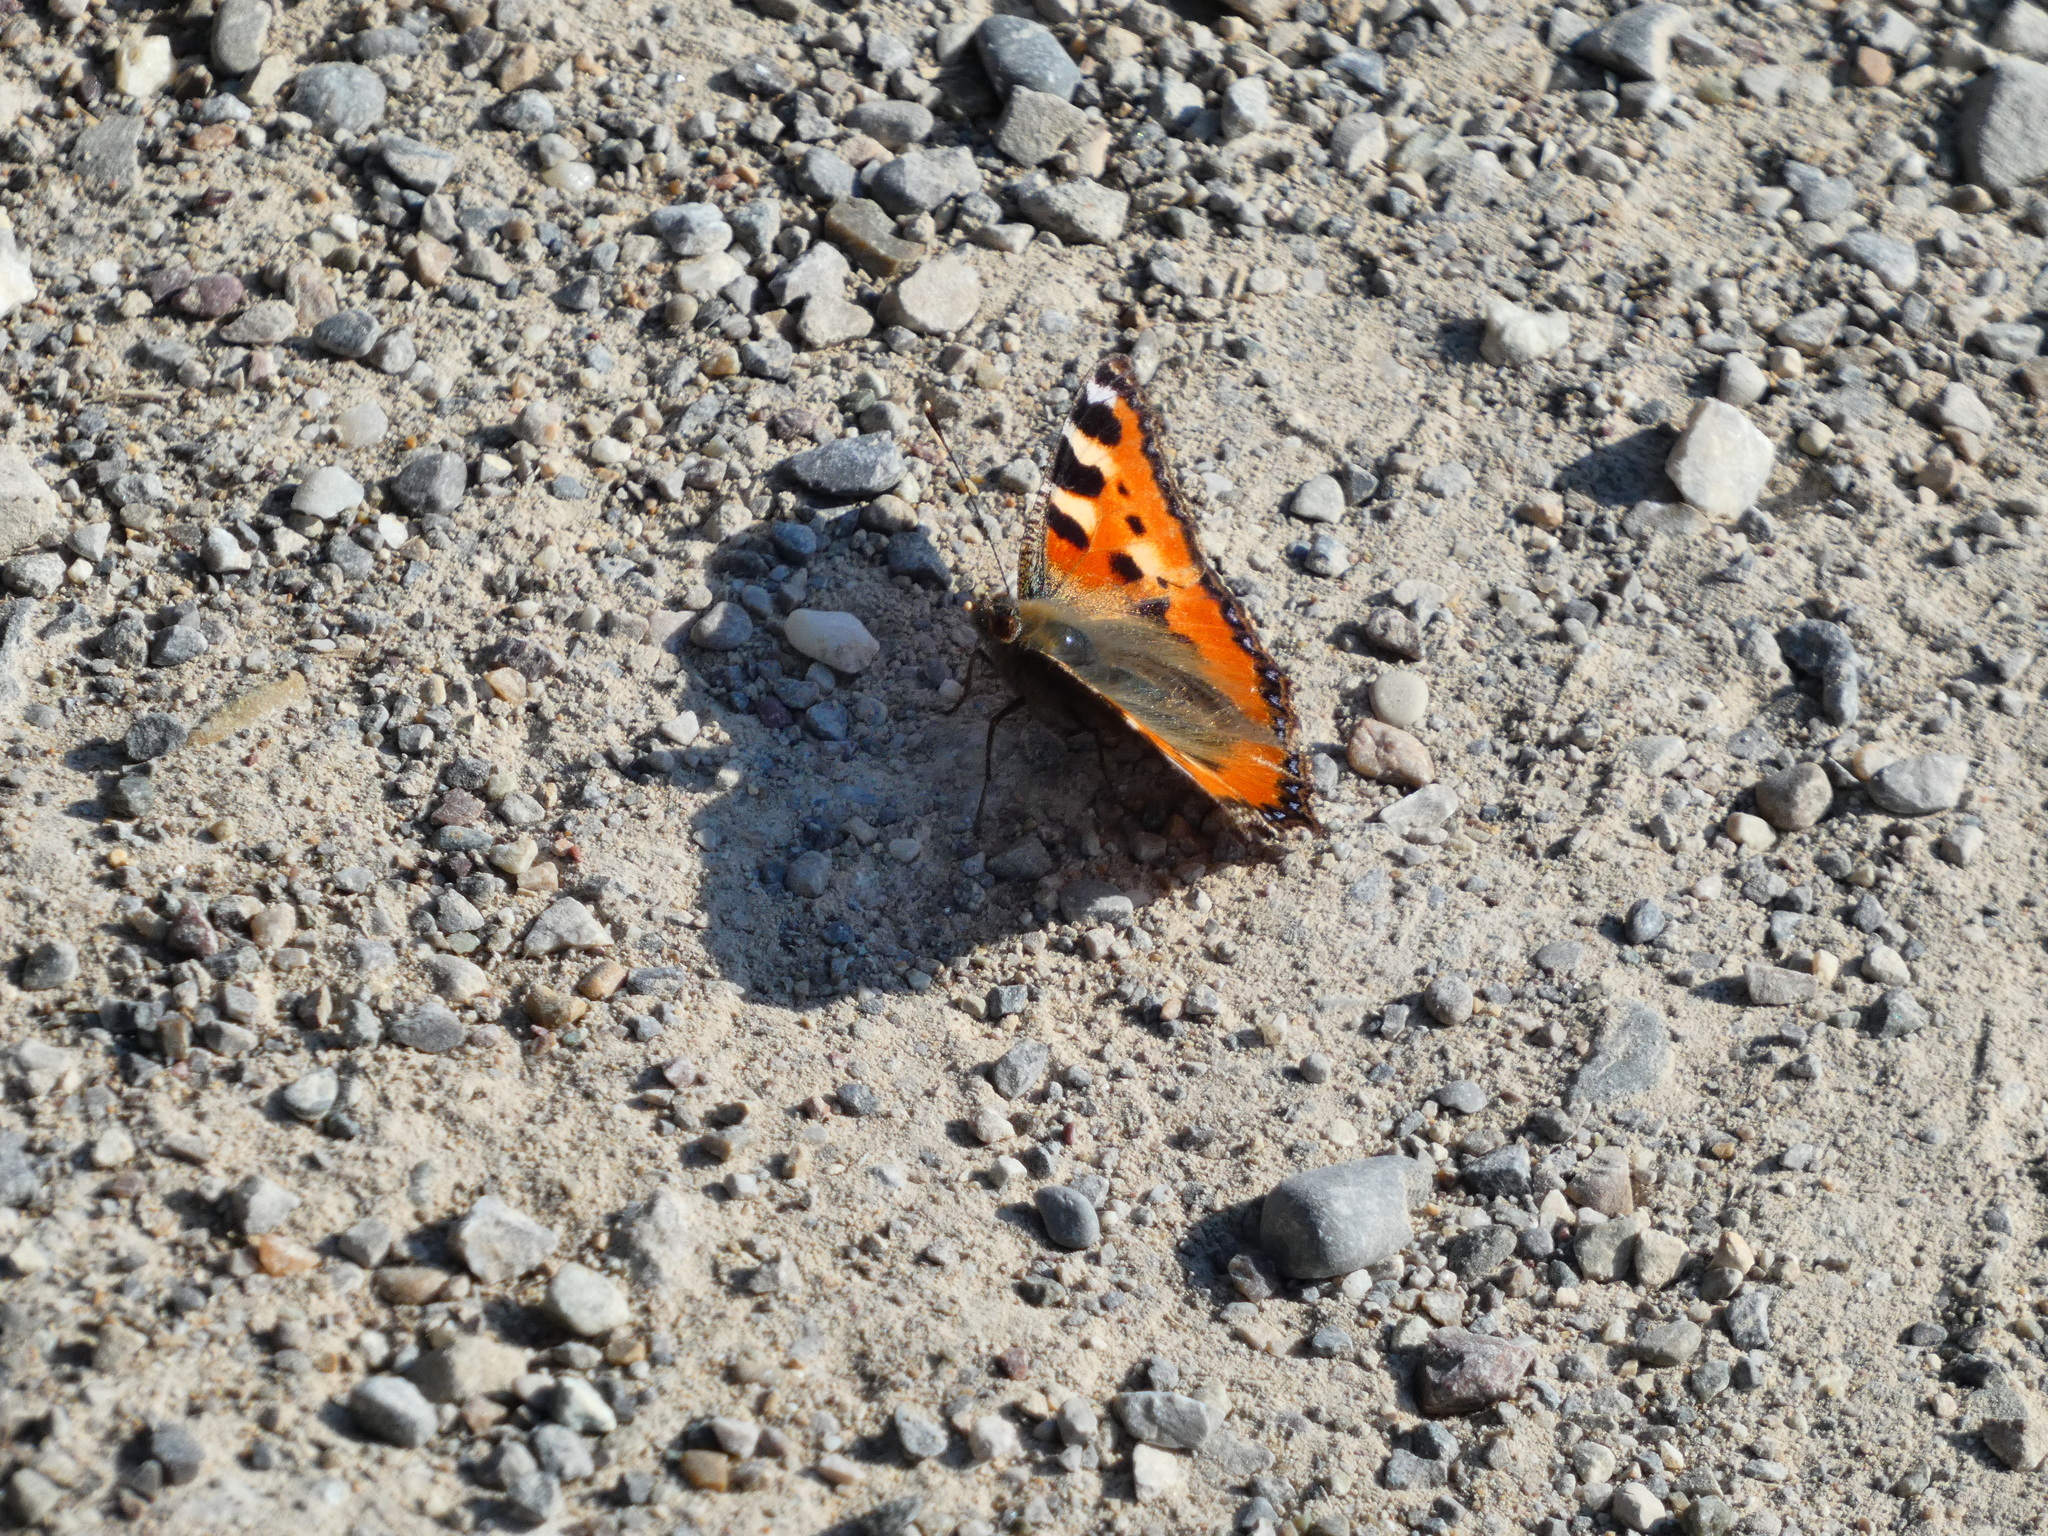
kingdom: Animalia
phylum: Arthropoda
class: Insecta
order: Lepidoptera
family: Nymphalidae
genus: Aglais
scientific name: Aglais urticae
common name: Small tortoiseshell
